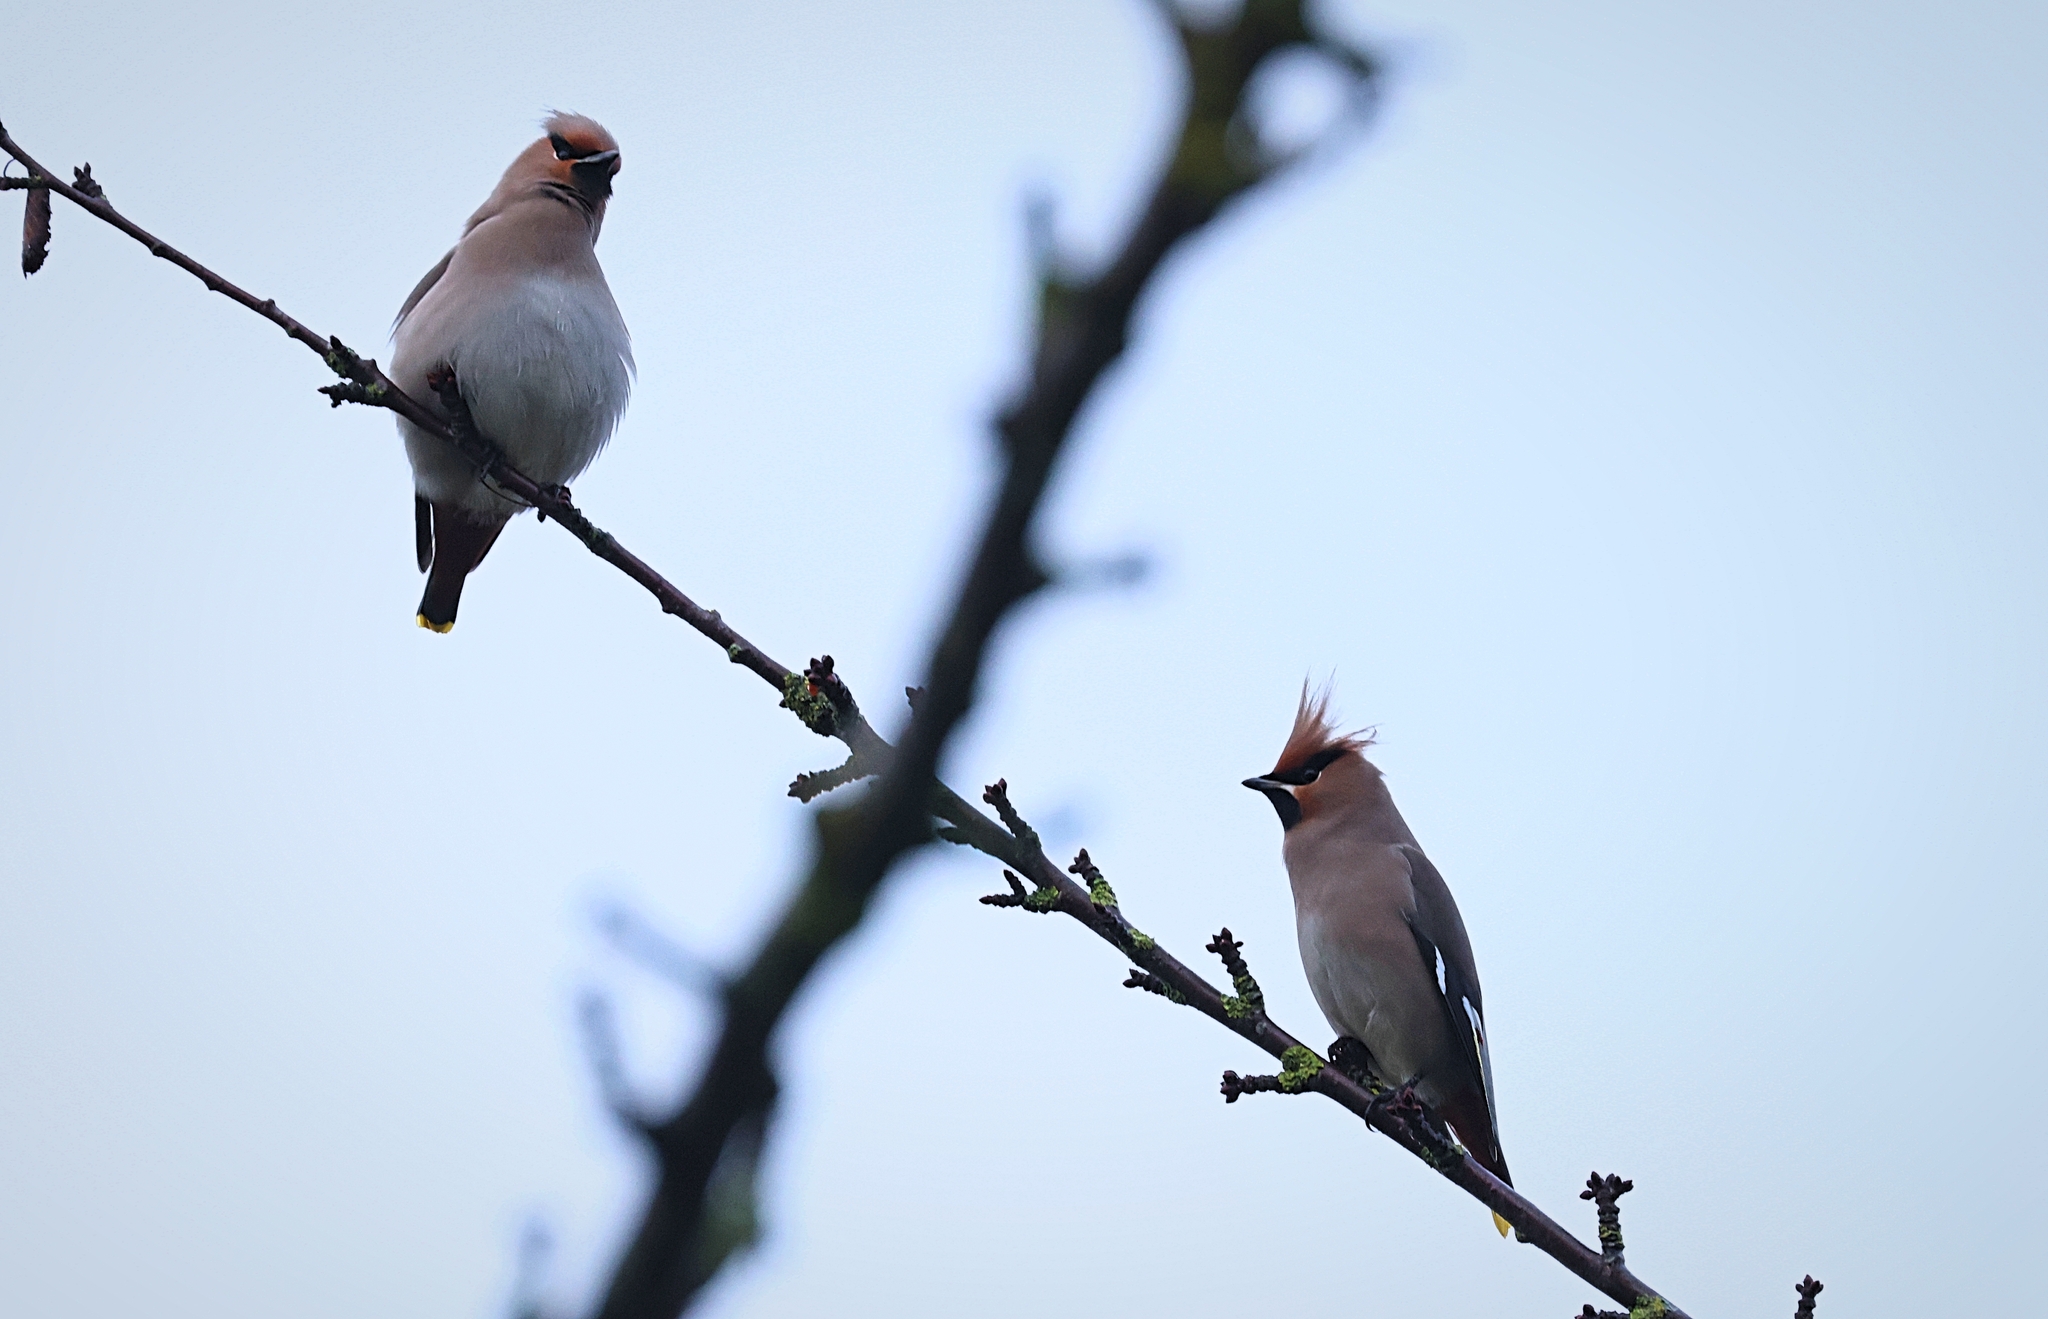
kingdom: Animalia
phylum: Chordata
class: Aves
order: Passeriformes
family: Bombycillidae
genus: Bombycilla
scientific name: Bombycilla garrulus
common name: Bohemian waxwing
